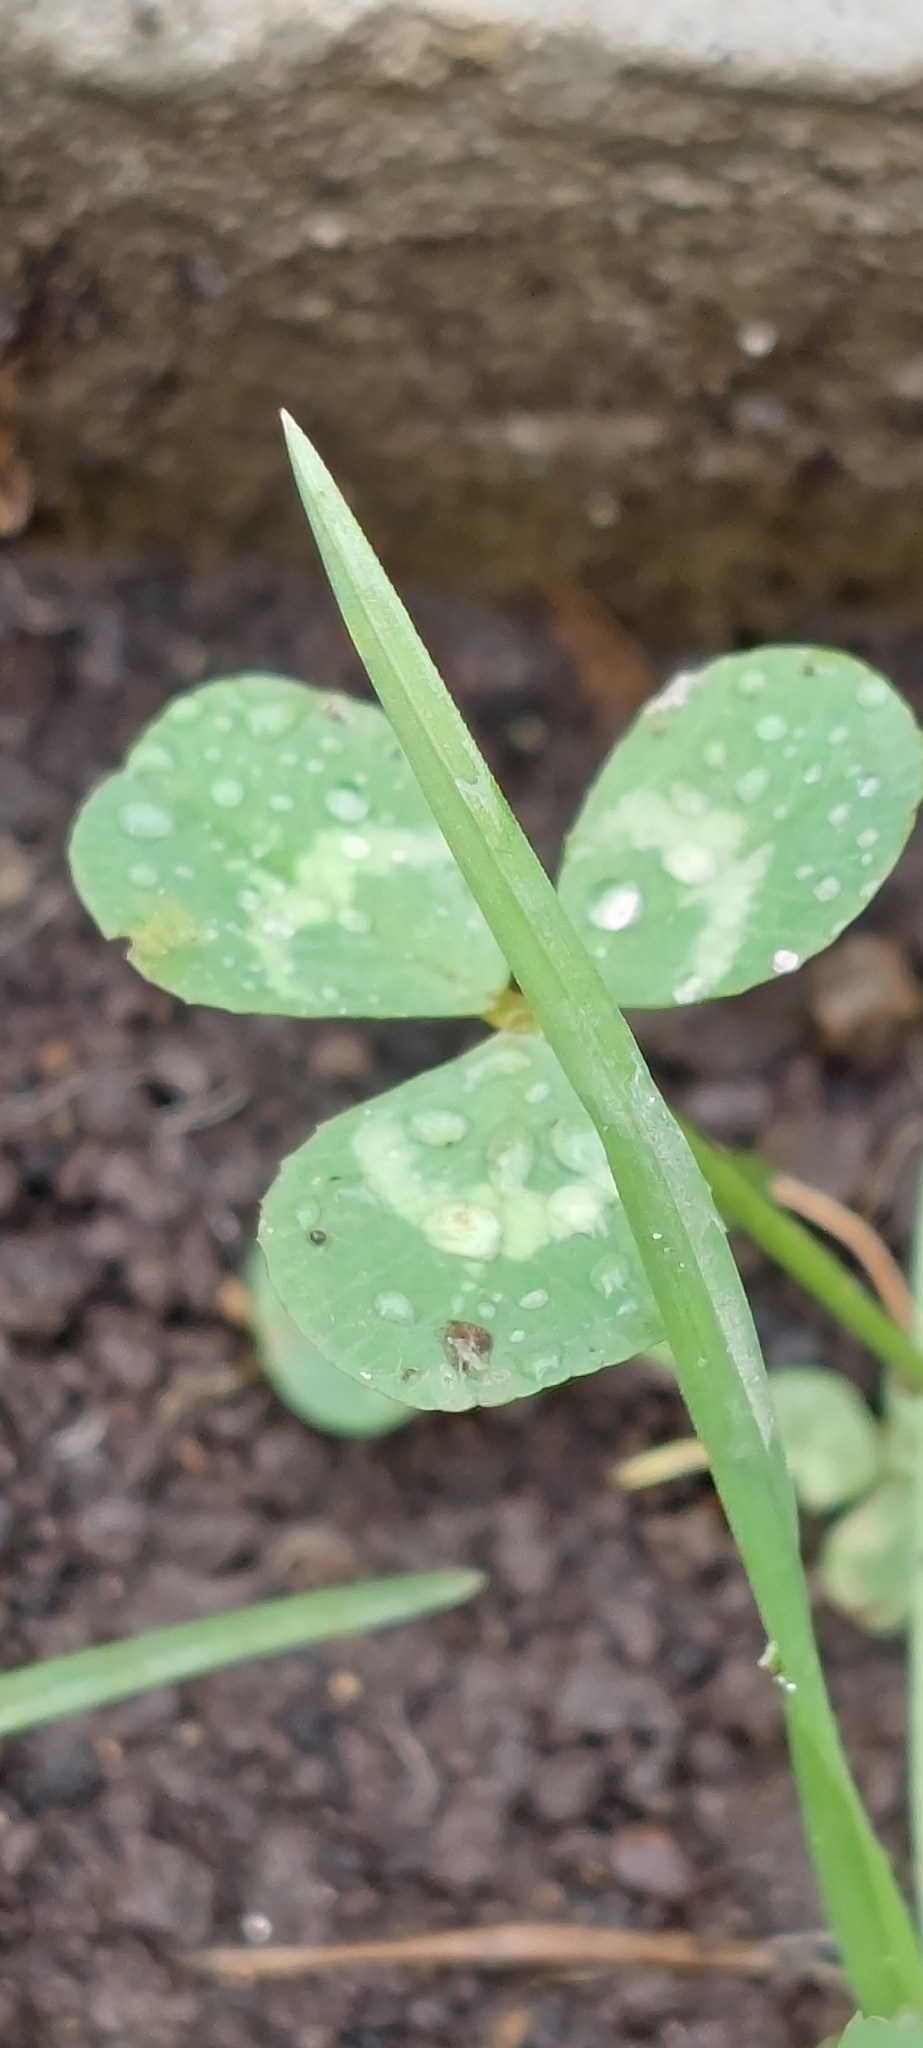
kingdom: Plantae
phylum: Tracheophyta
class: Magnoliopsida
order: Fabales
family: Fabaceae
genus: Trifolium
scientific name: Trifolium repens
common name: White clover
